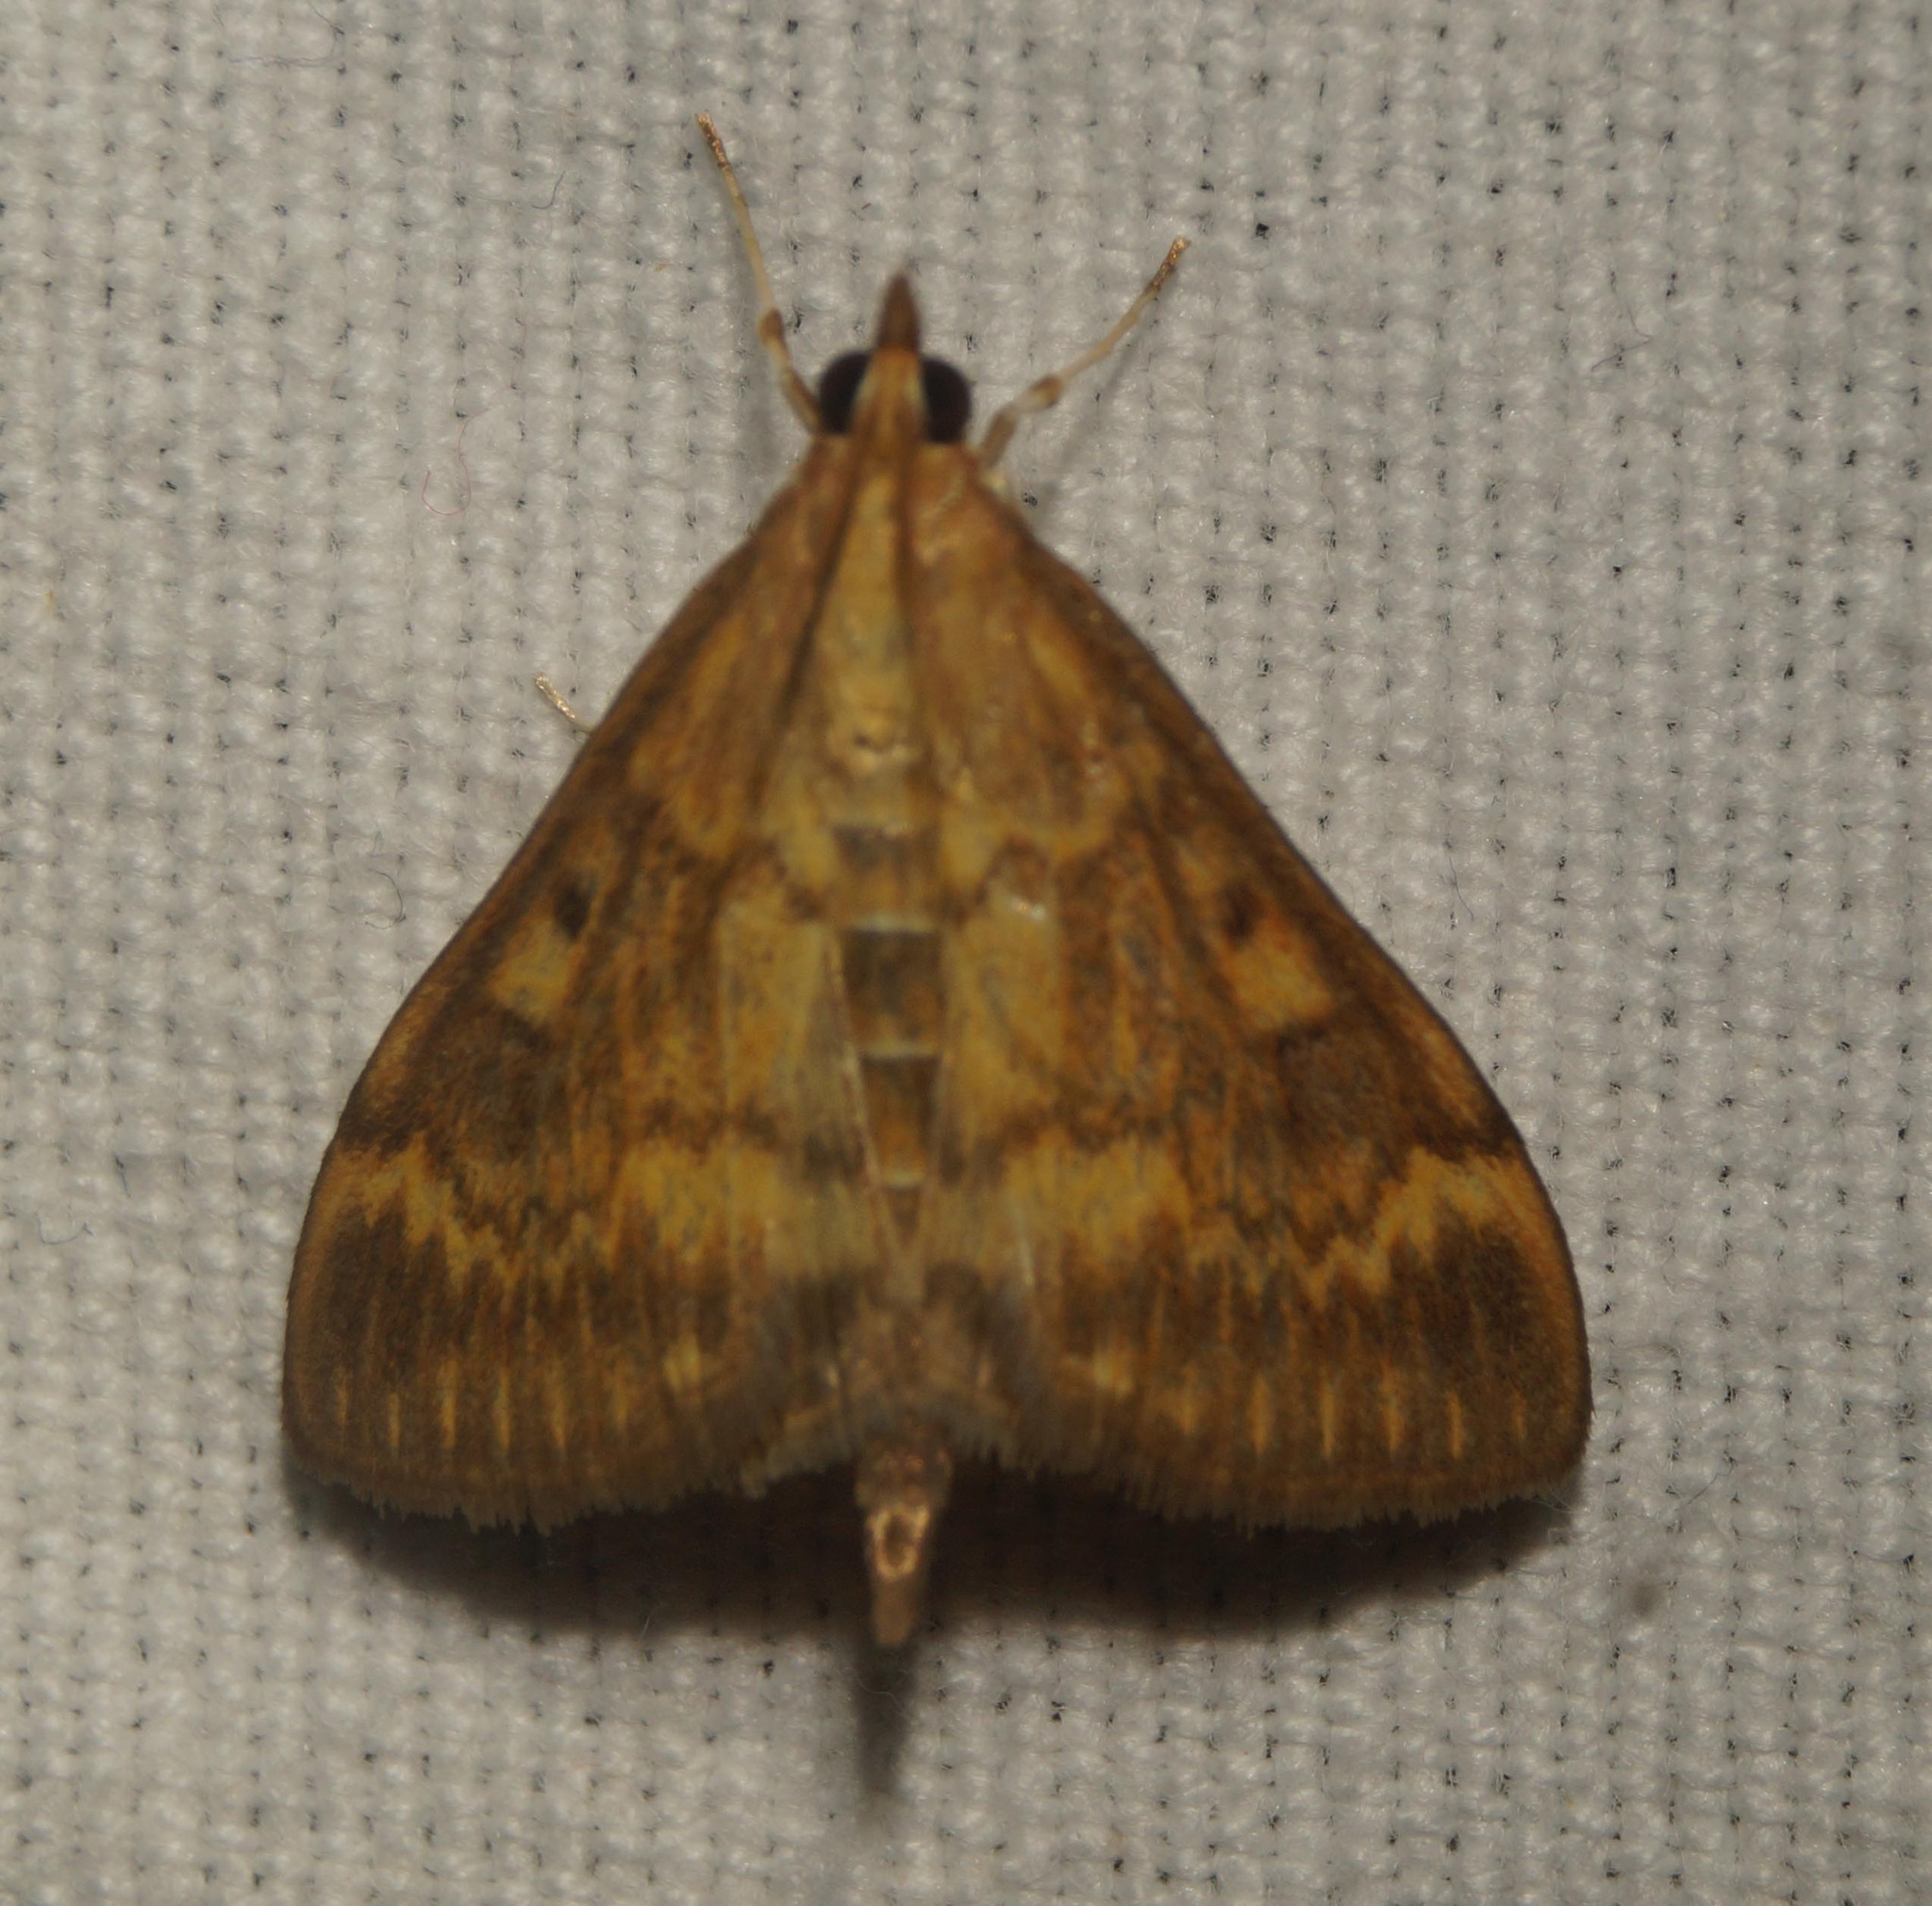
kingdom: Animalia
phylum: Arthropoda
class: Insecta
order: Lepidoptera
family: Crambidae
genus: Ostrinia
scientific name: Ostrinia nubilalis
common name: European corn borer
